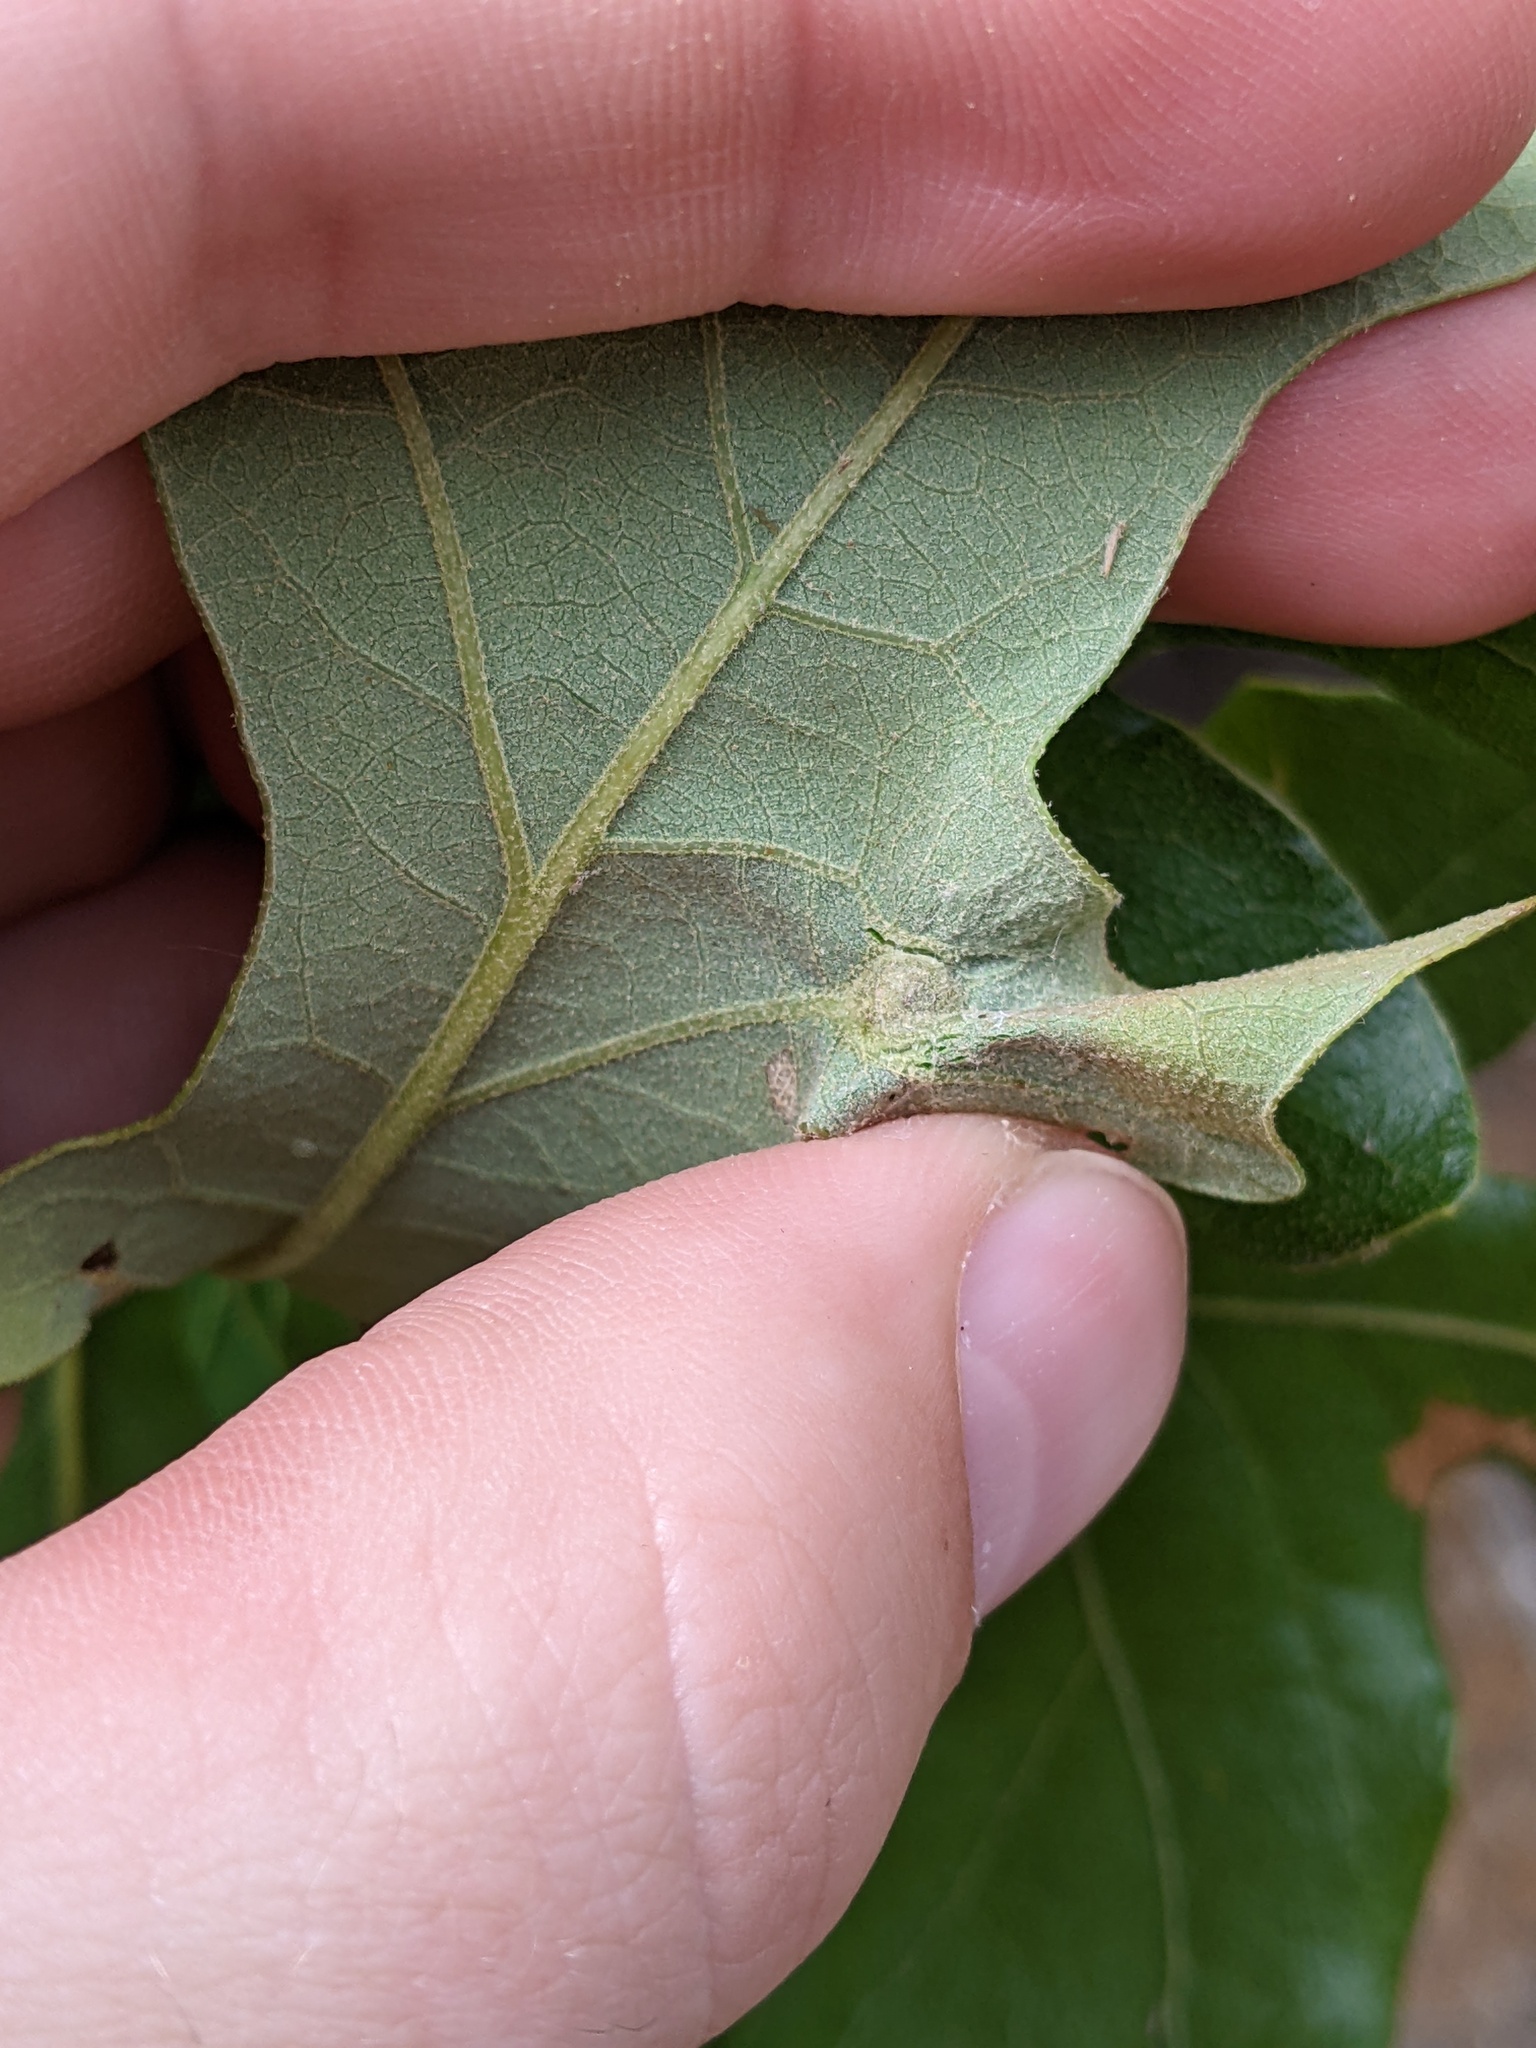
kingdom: Animalia
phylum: Arthropoda
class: Insecta
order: Hymenoptera
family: Cynipidae
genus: Andricus
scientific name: Andricus
